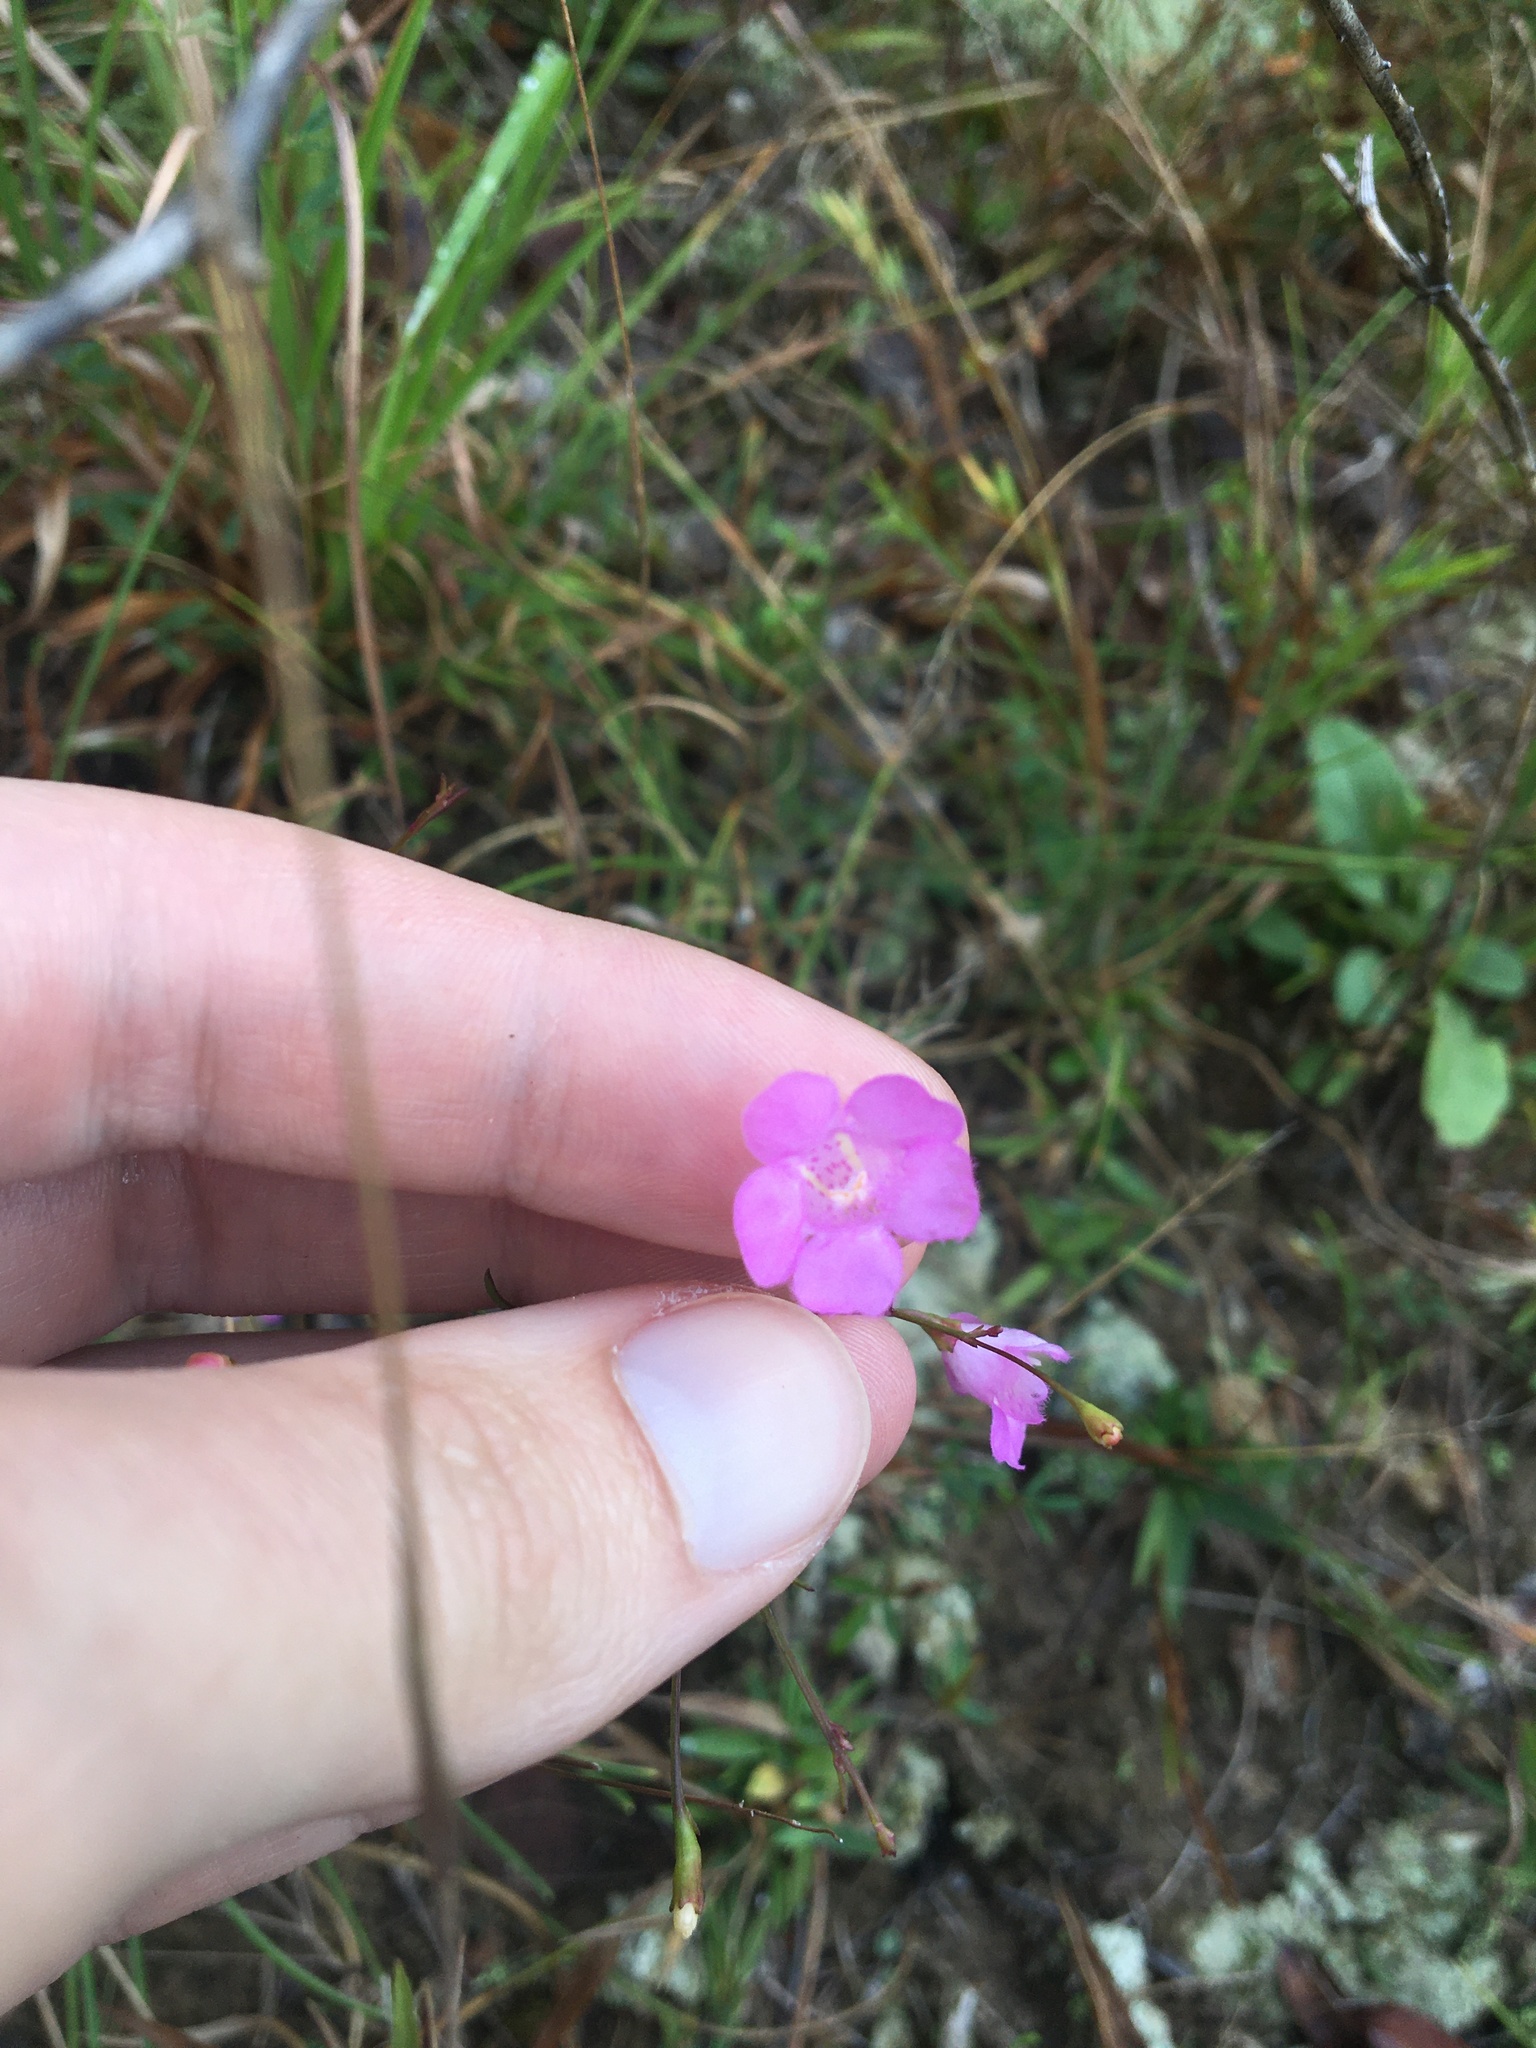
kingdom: Plantae
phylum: Tracheophyta
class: Magnoliopsida
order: Lamiales
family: Orobanchaceae
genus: Agalinis
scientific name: Agalinis tenuifolia
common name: Slender agalinis
